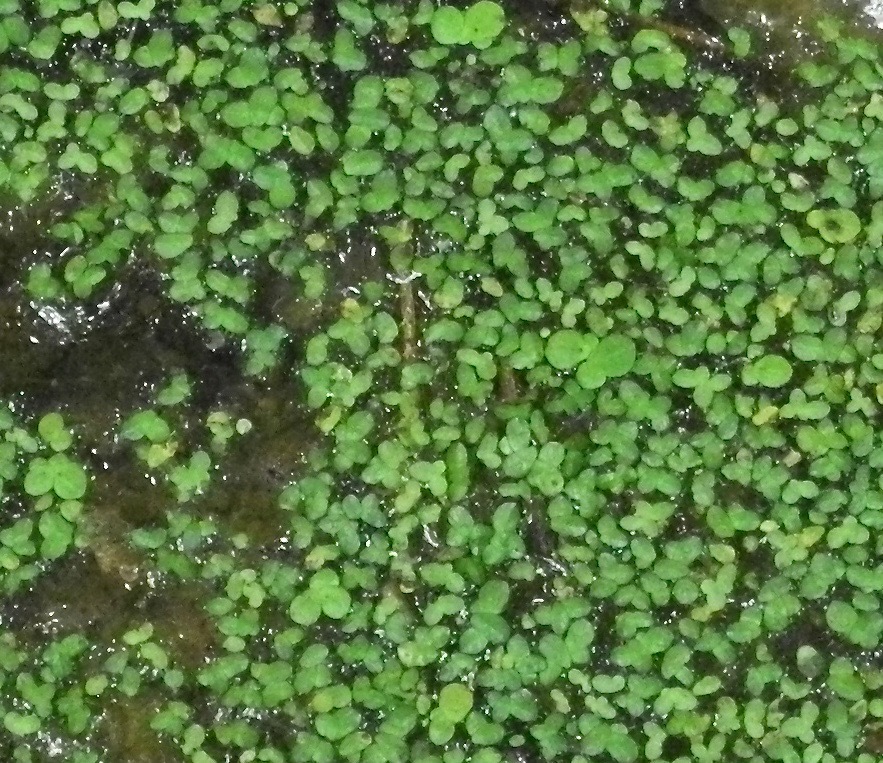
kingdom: Plantae
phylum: Tracheophyta
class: Liliopsida
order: Alismatales
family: Araceae
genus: Lemna
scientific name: Lemna minor
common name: Common duckweed
